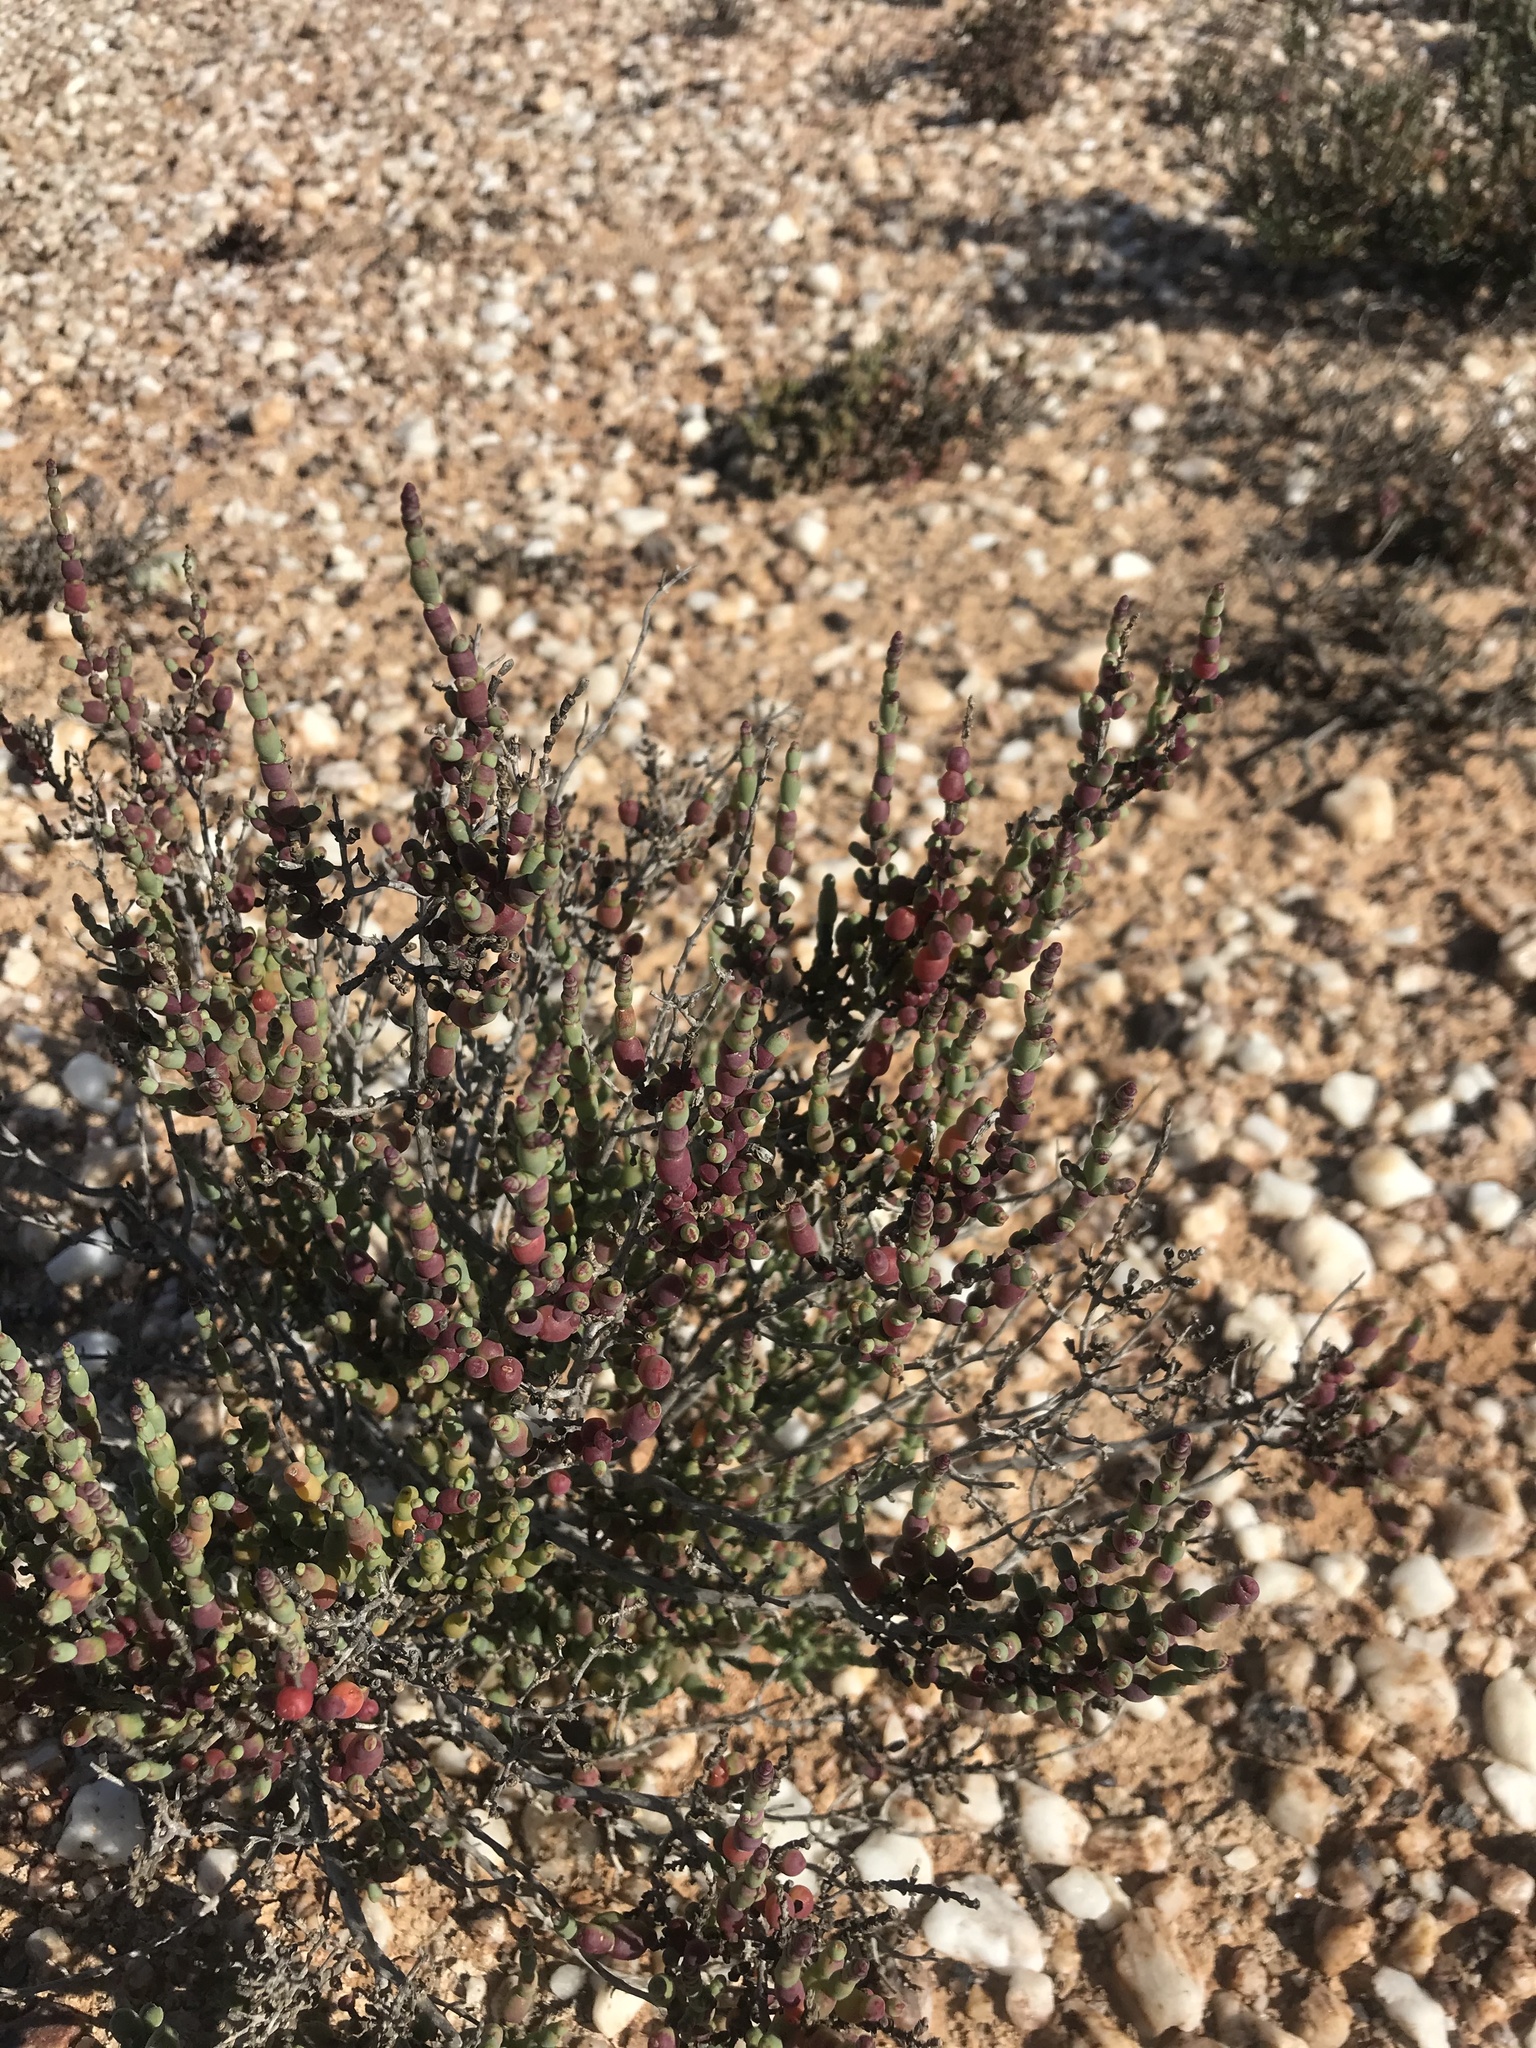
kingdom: Plantae
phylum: Tracheophyta
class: Magnoliopsida
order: Caryophyllales
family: Amaranthaceae
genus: Salicornia
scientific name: Salicornia xerophila
